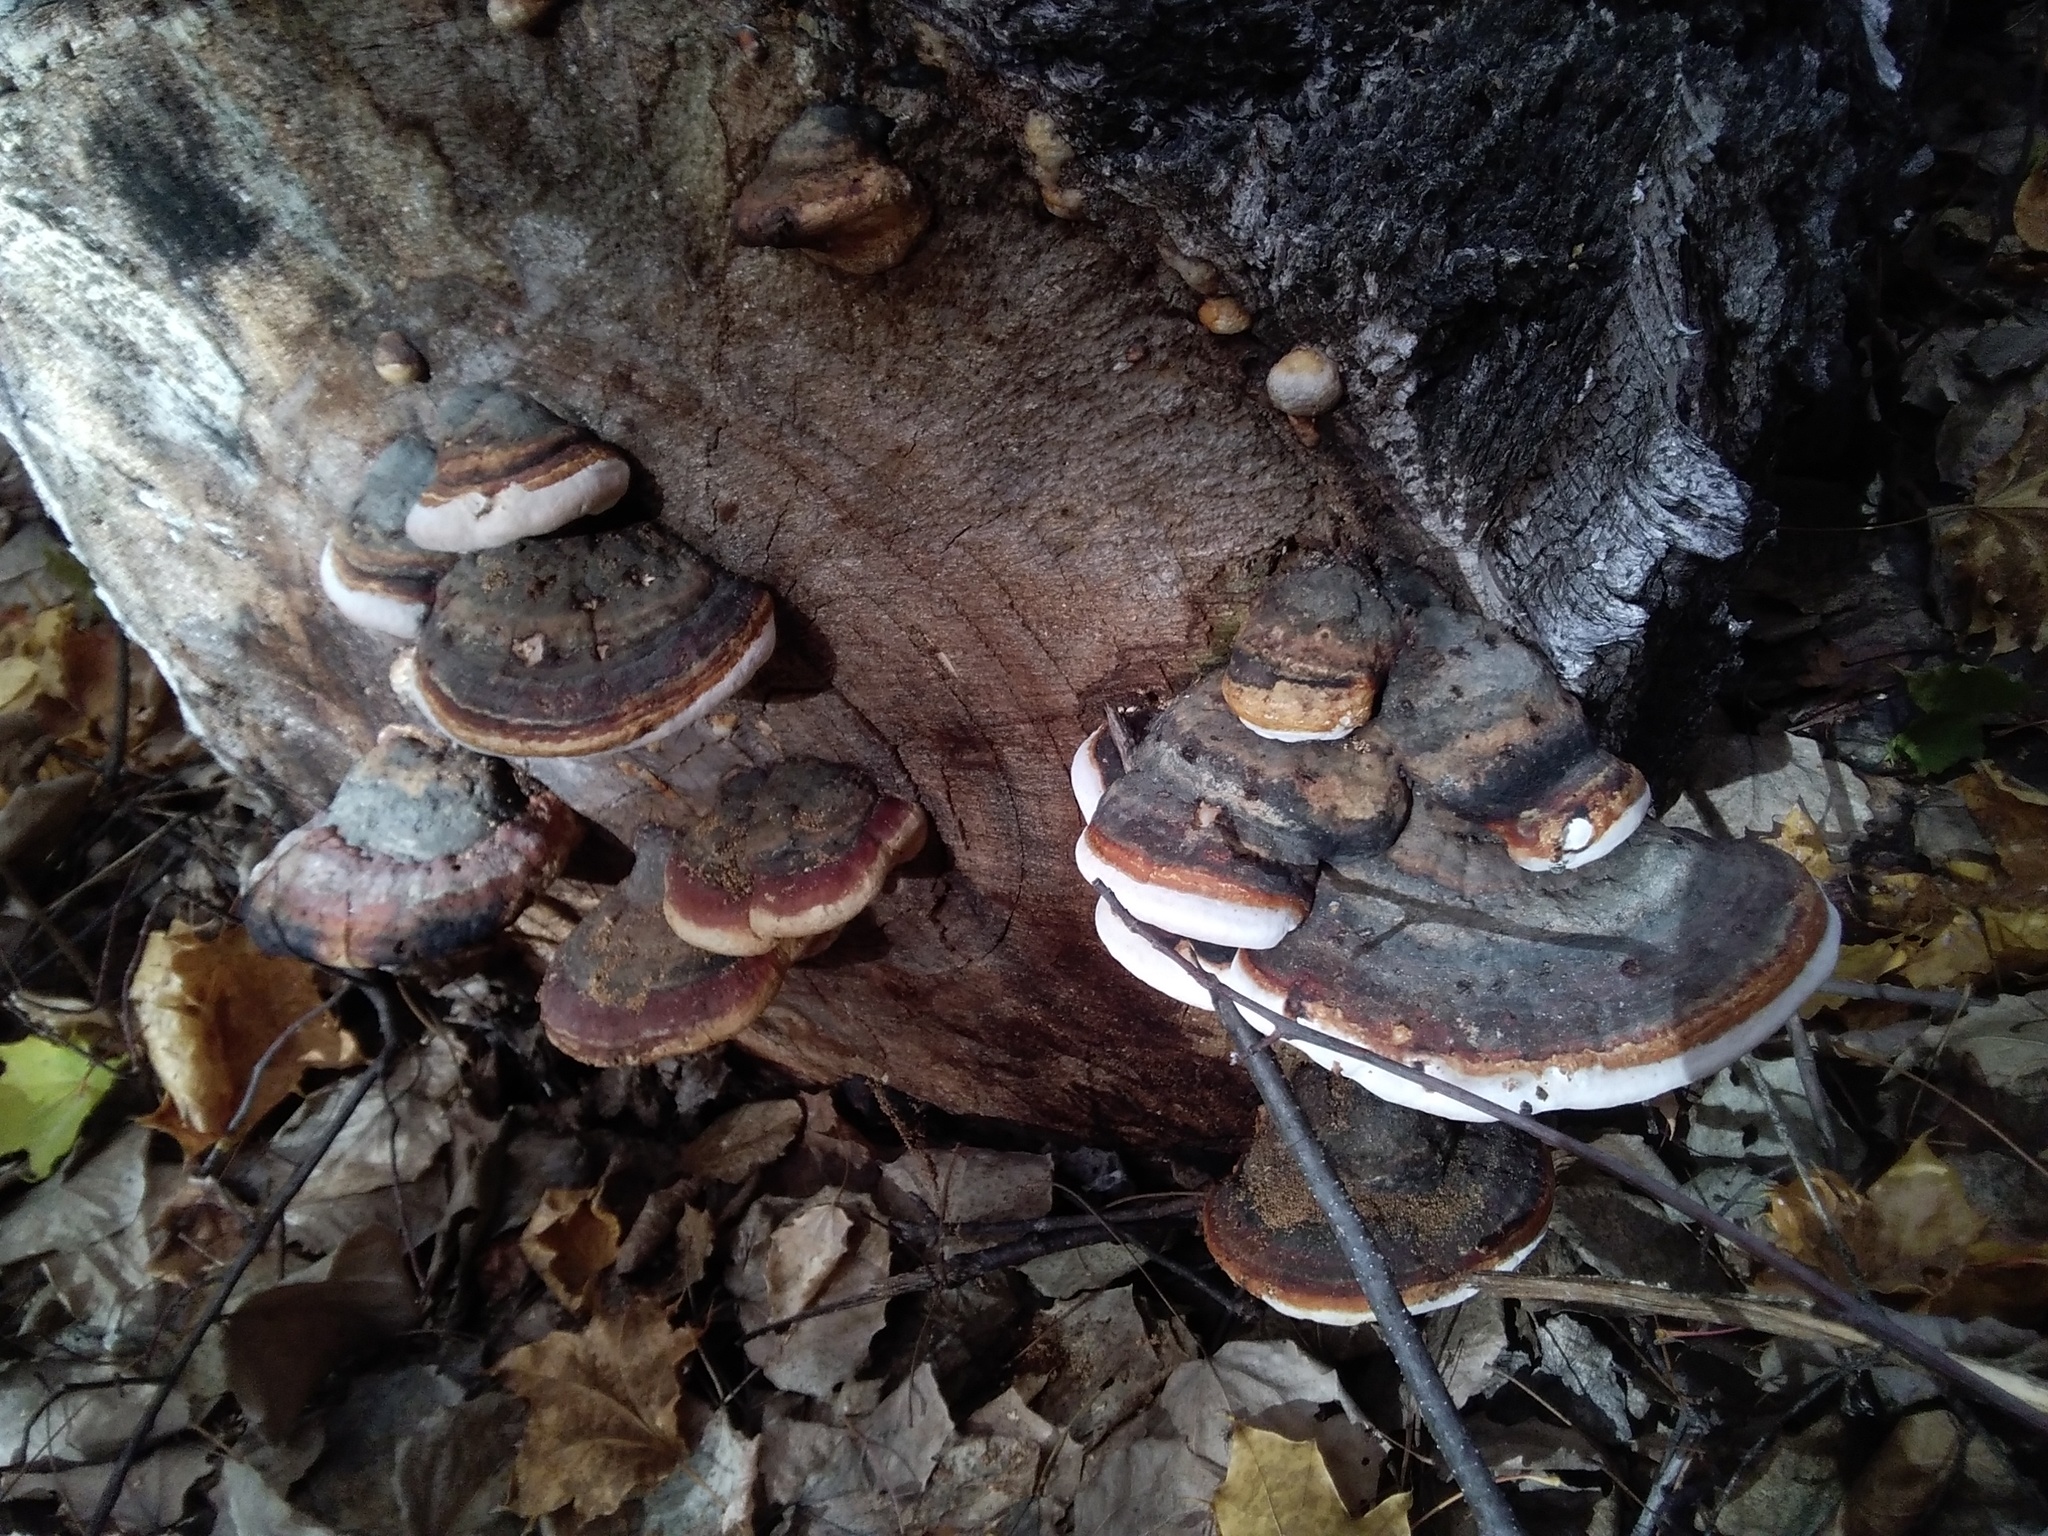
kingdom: Fungi
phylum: Basidiomycota
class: Agaricomycetes
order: Polyporales
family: Fomitopsidaceae
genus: Fomitopsis
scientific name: Fomitopsis pinicola
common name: Red-belted bracket
